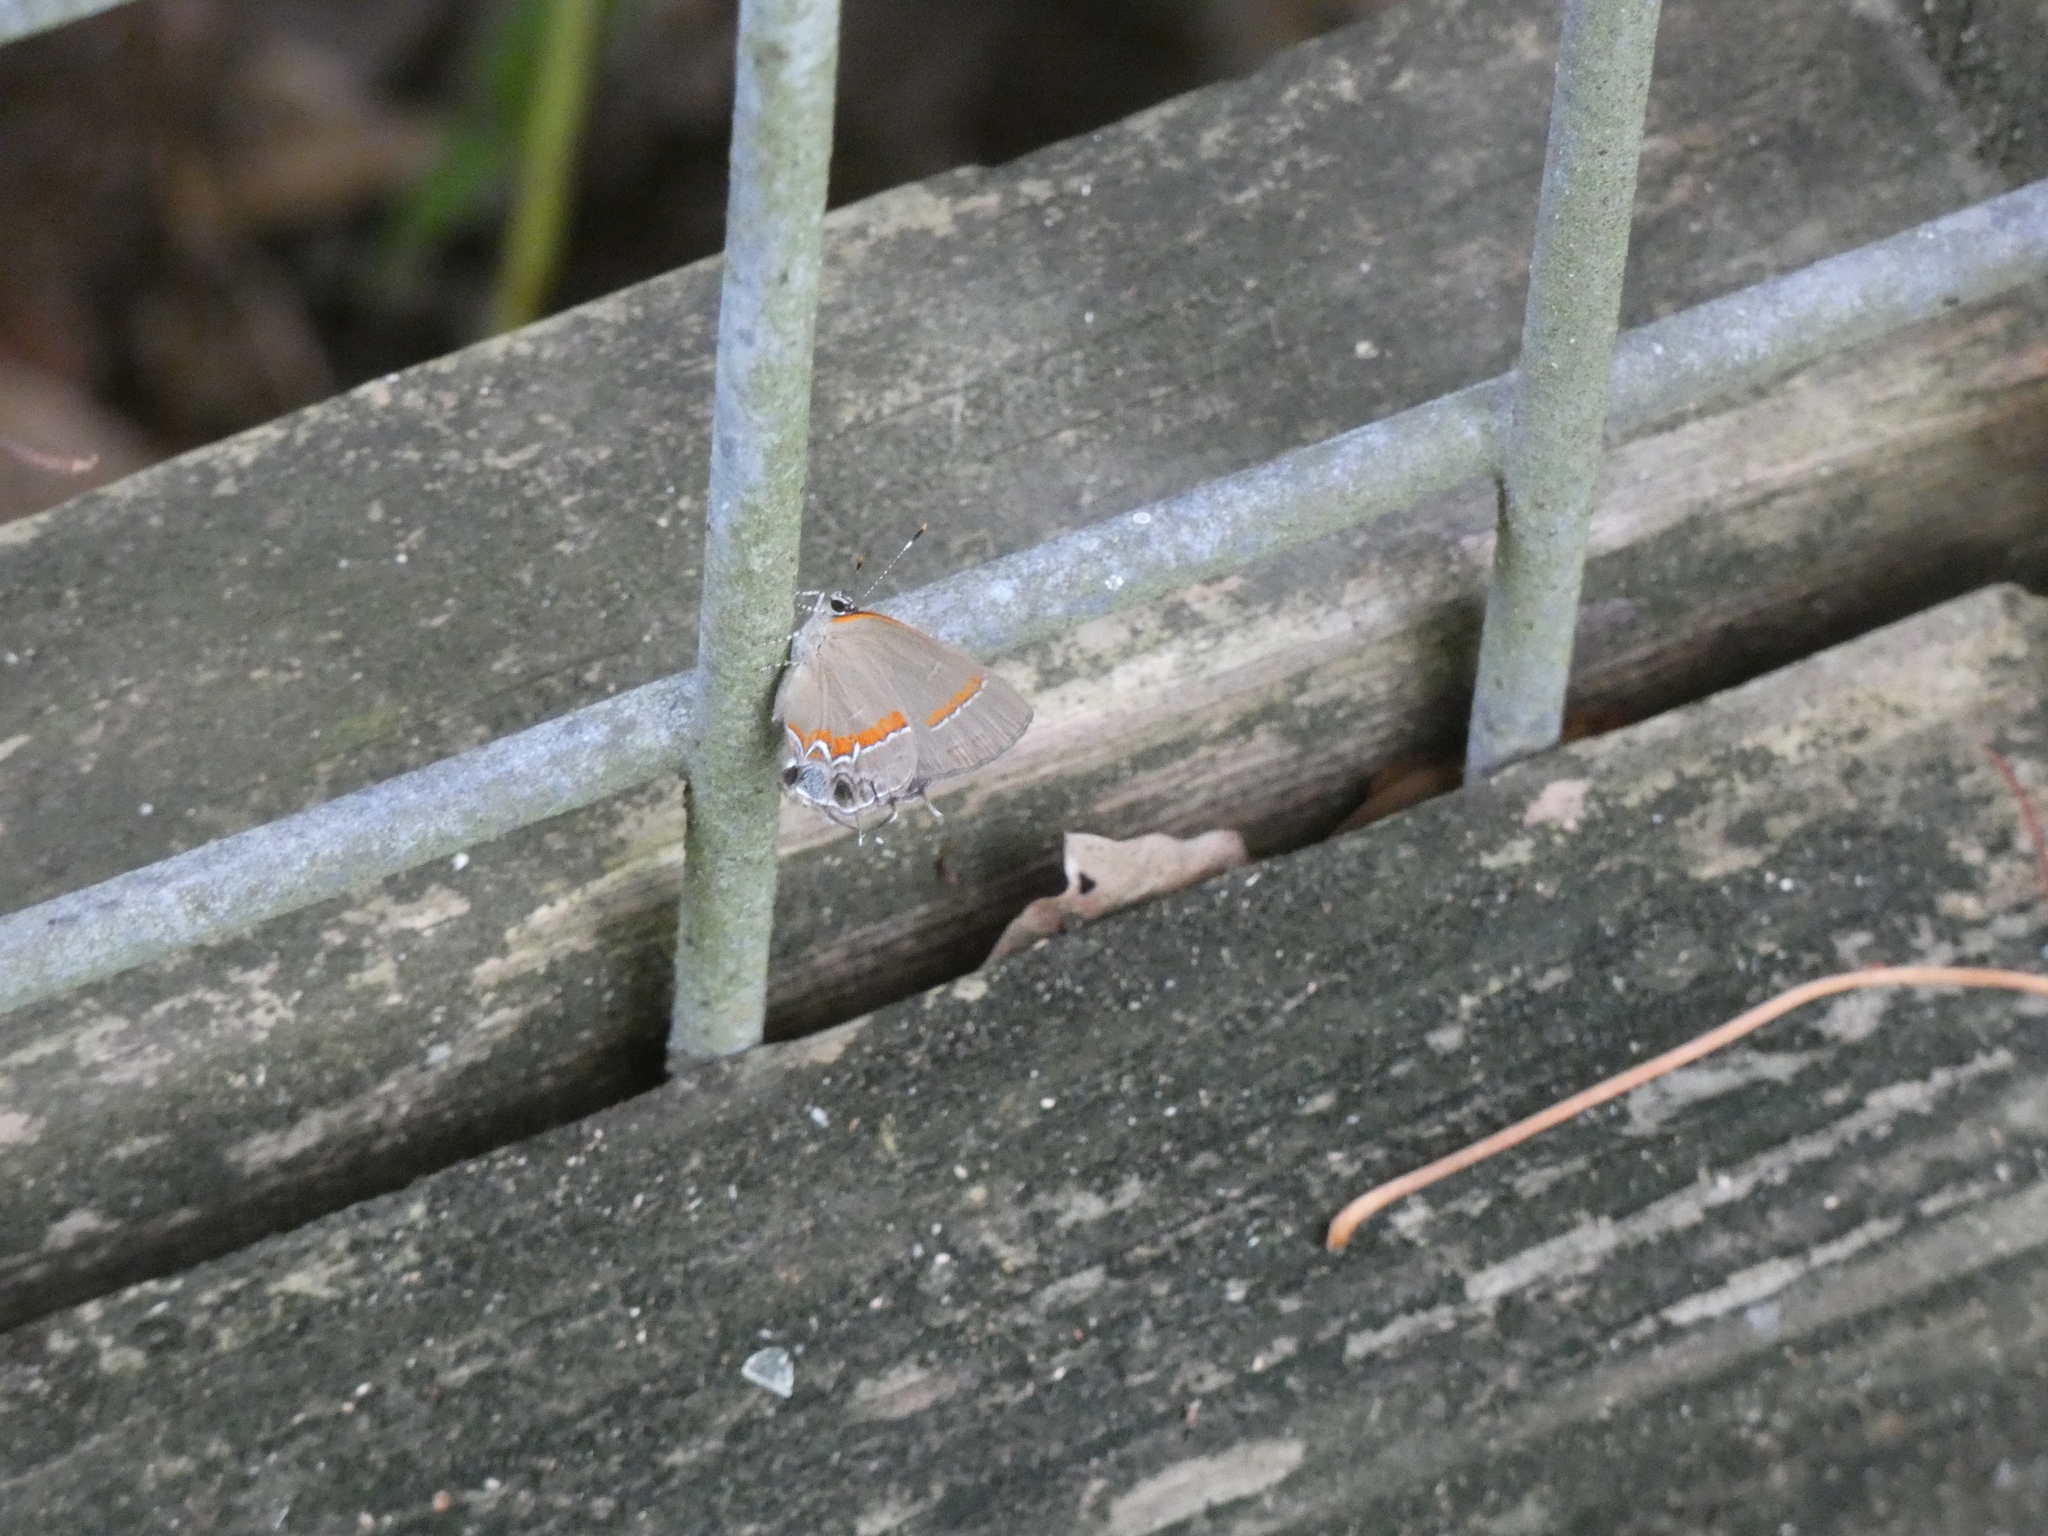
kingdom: Animalia
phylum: Arthropoda
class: Insecta
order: Lepidoptera
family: Lycaenidae
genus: Calycopis
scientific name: Calycopis cecrops
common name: Red-banded hairstreak
